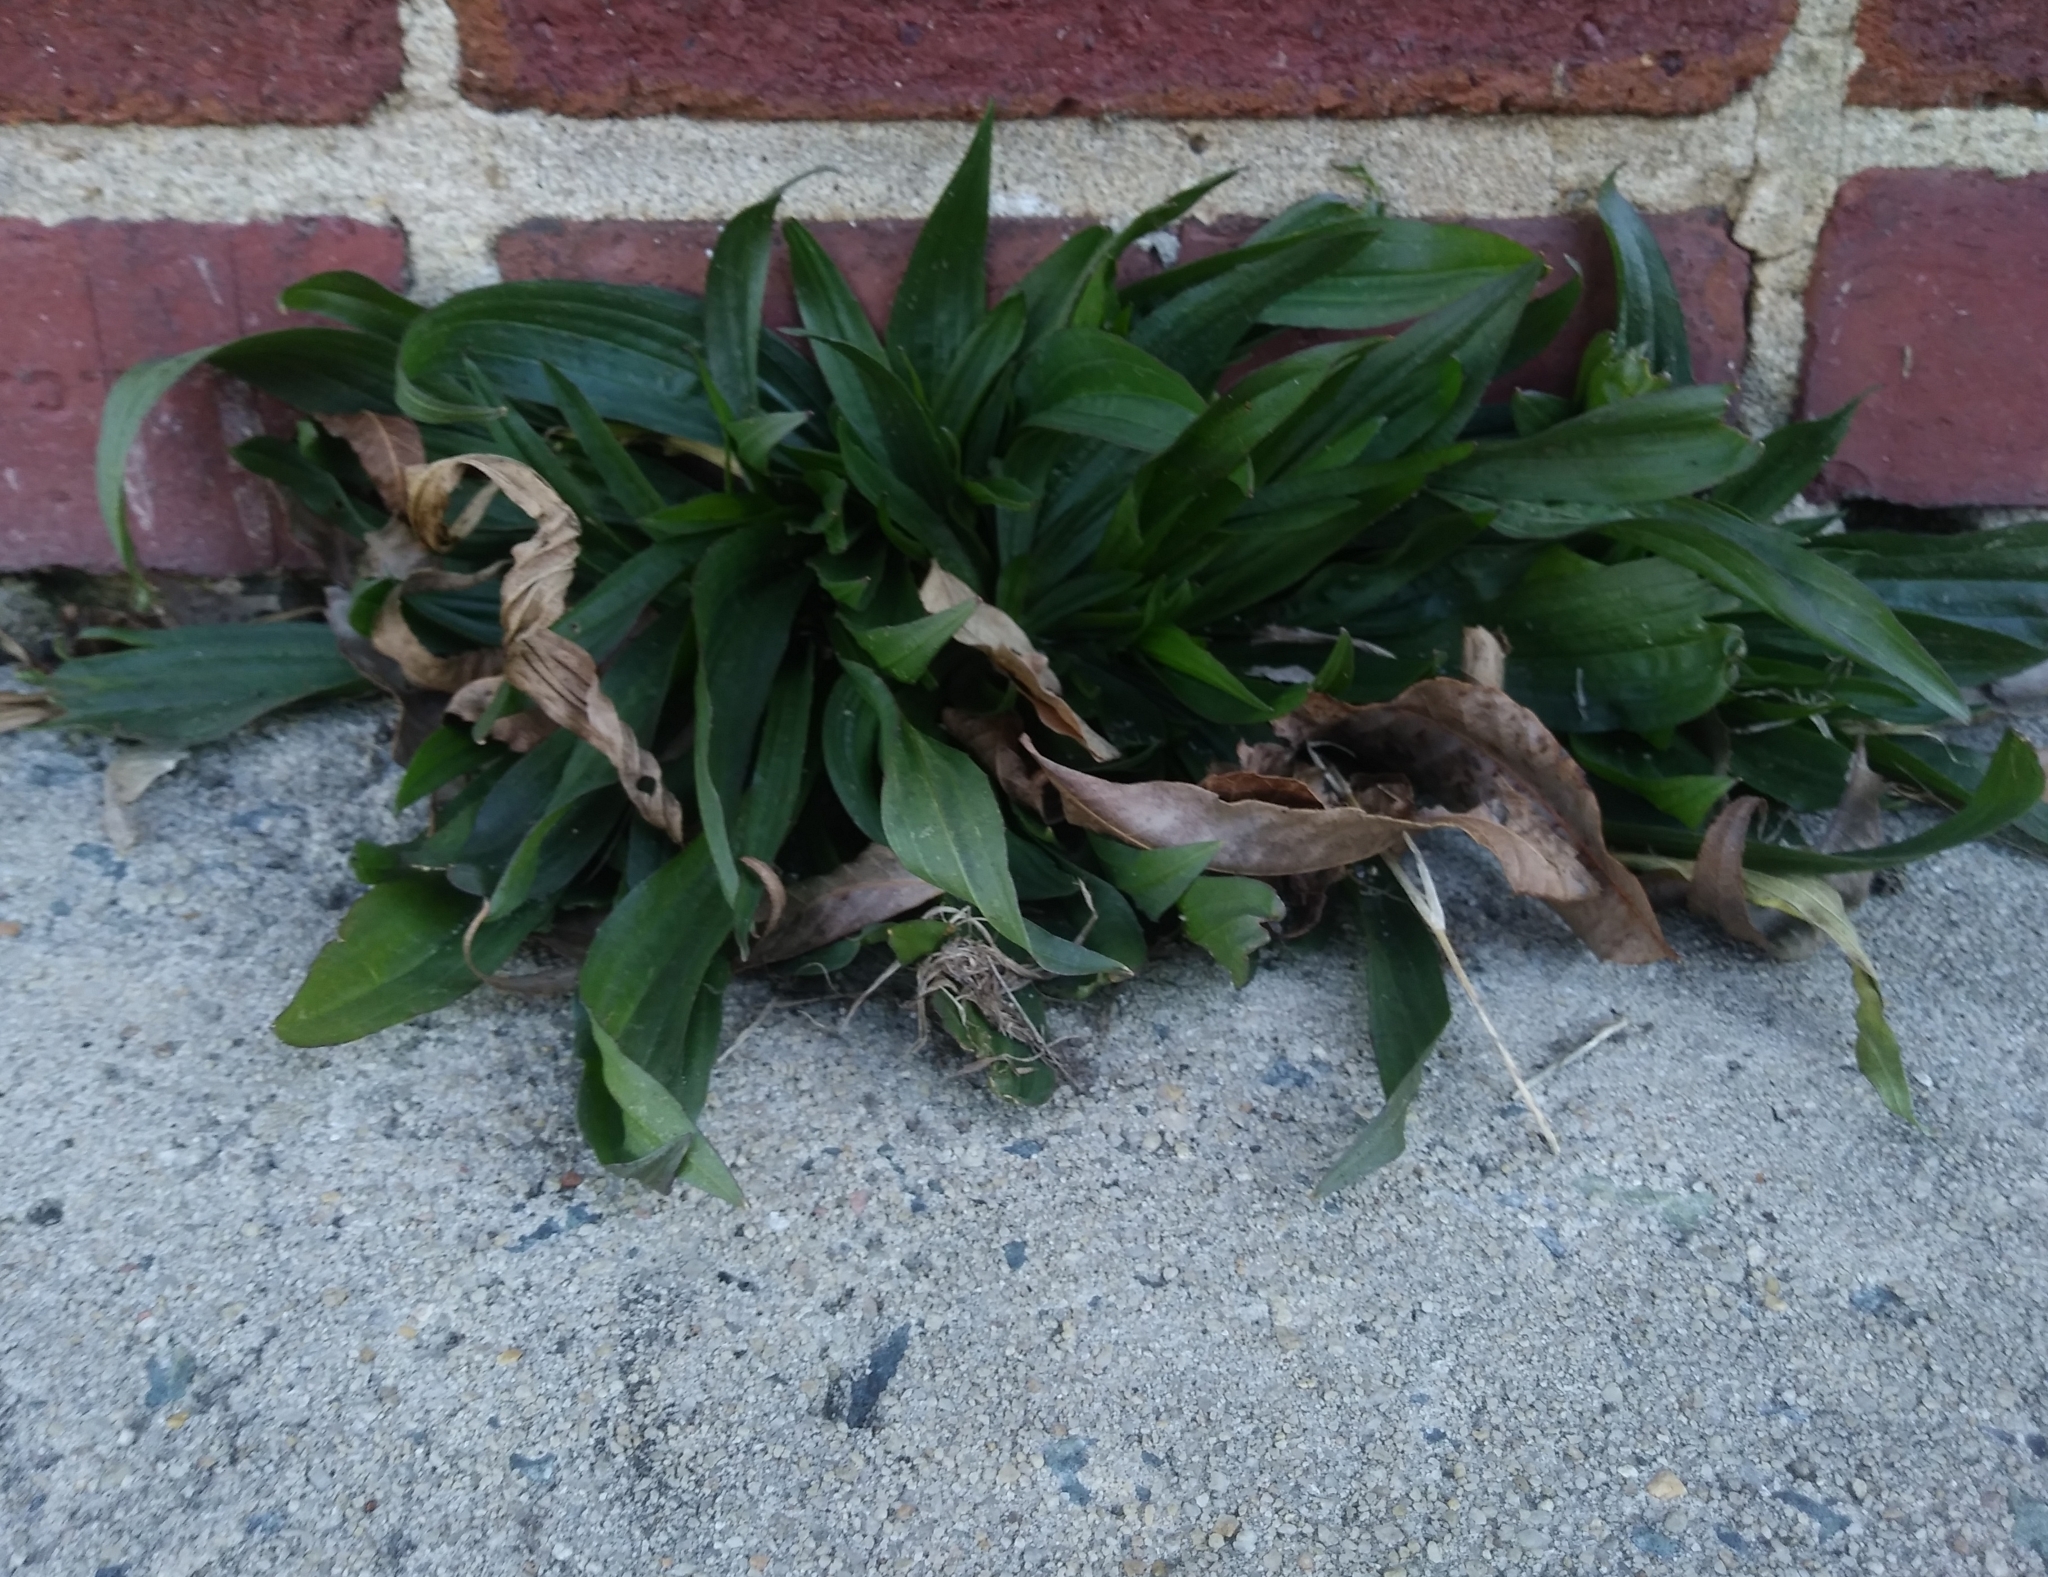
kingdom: Plantae
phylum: Tracheophyta
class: Magnoliopsida
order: Lamiales
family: Plantaginaceae
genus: Plantago
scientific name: Plantago lanceolata
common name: Ribwort plantain
